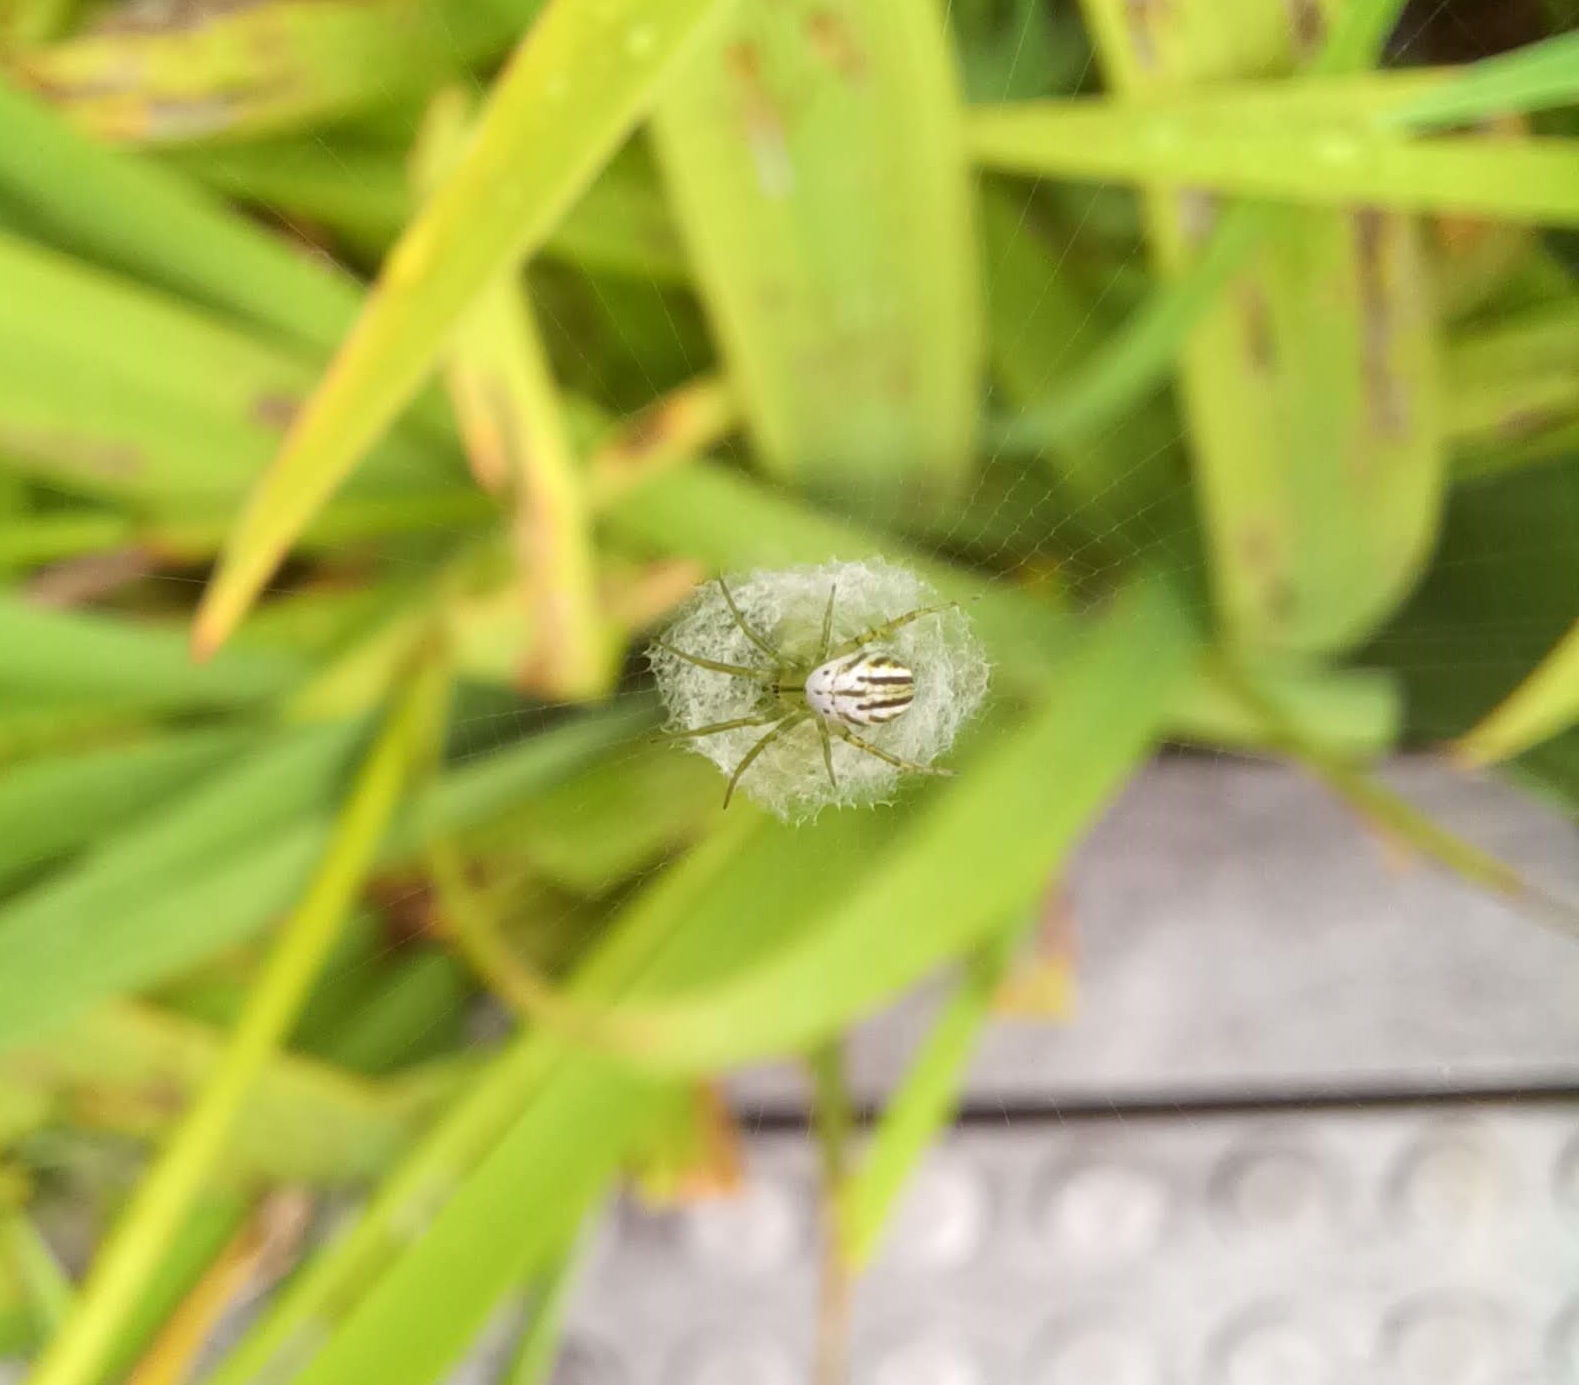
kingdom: Animalia
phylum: Arthropoda
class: Arachnida
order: Araneae
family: Araneidae
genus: Mangora
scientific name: Mangora gibberosa
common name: Lined orbweaver
